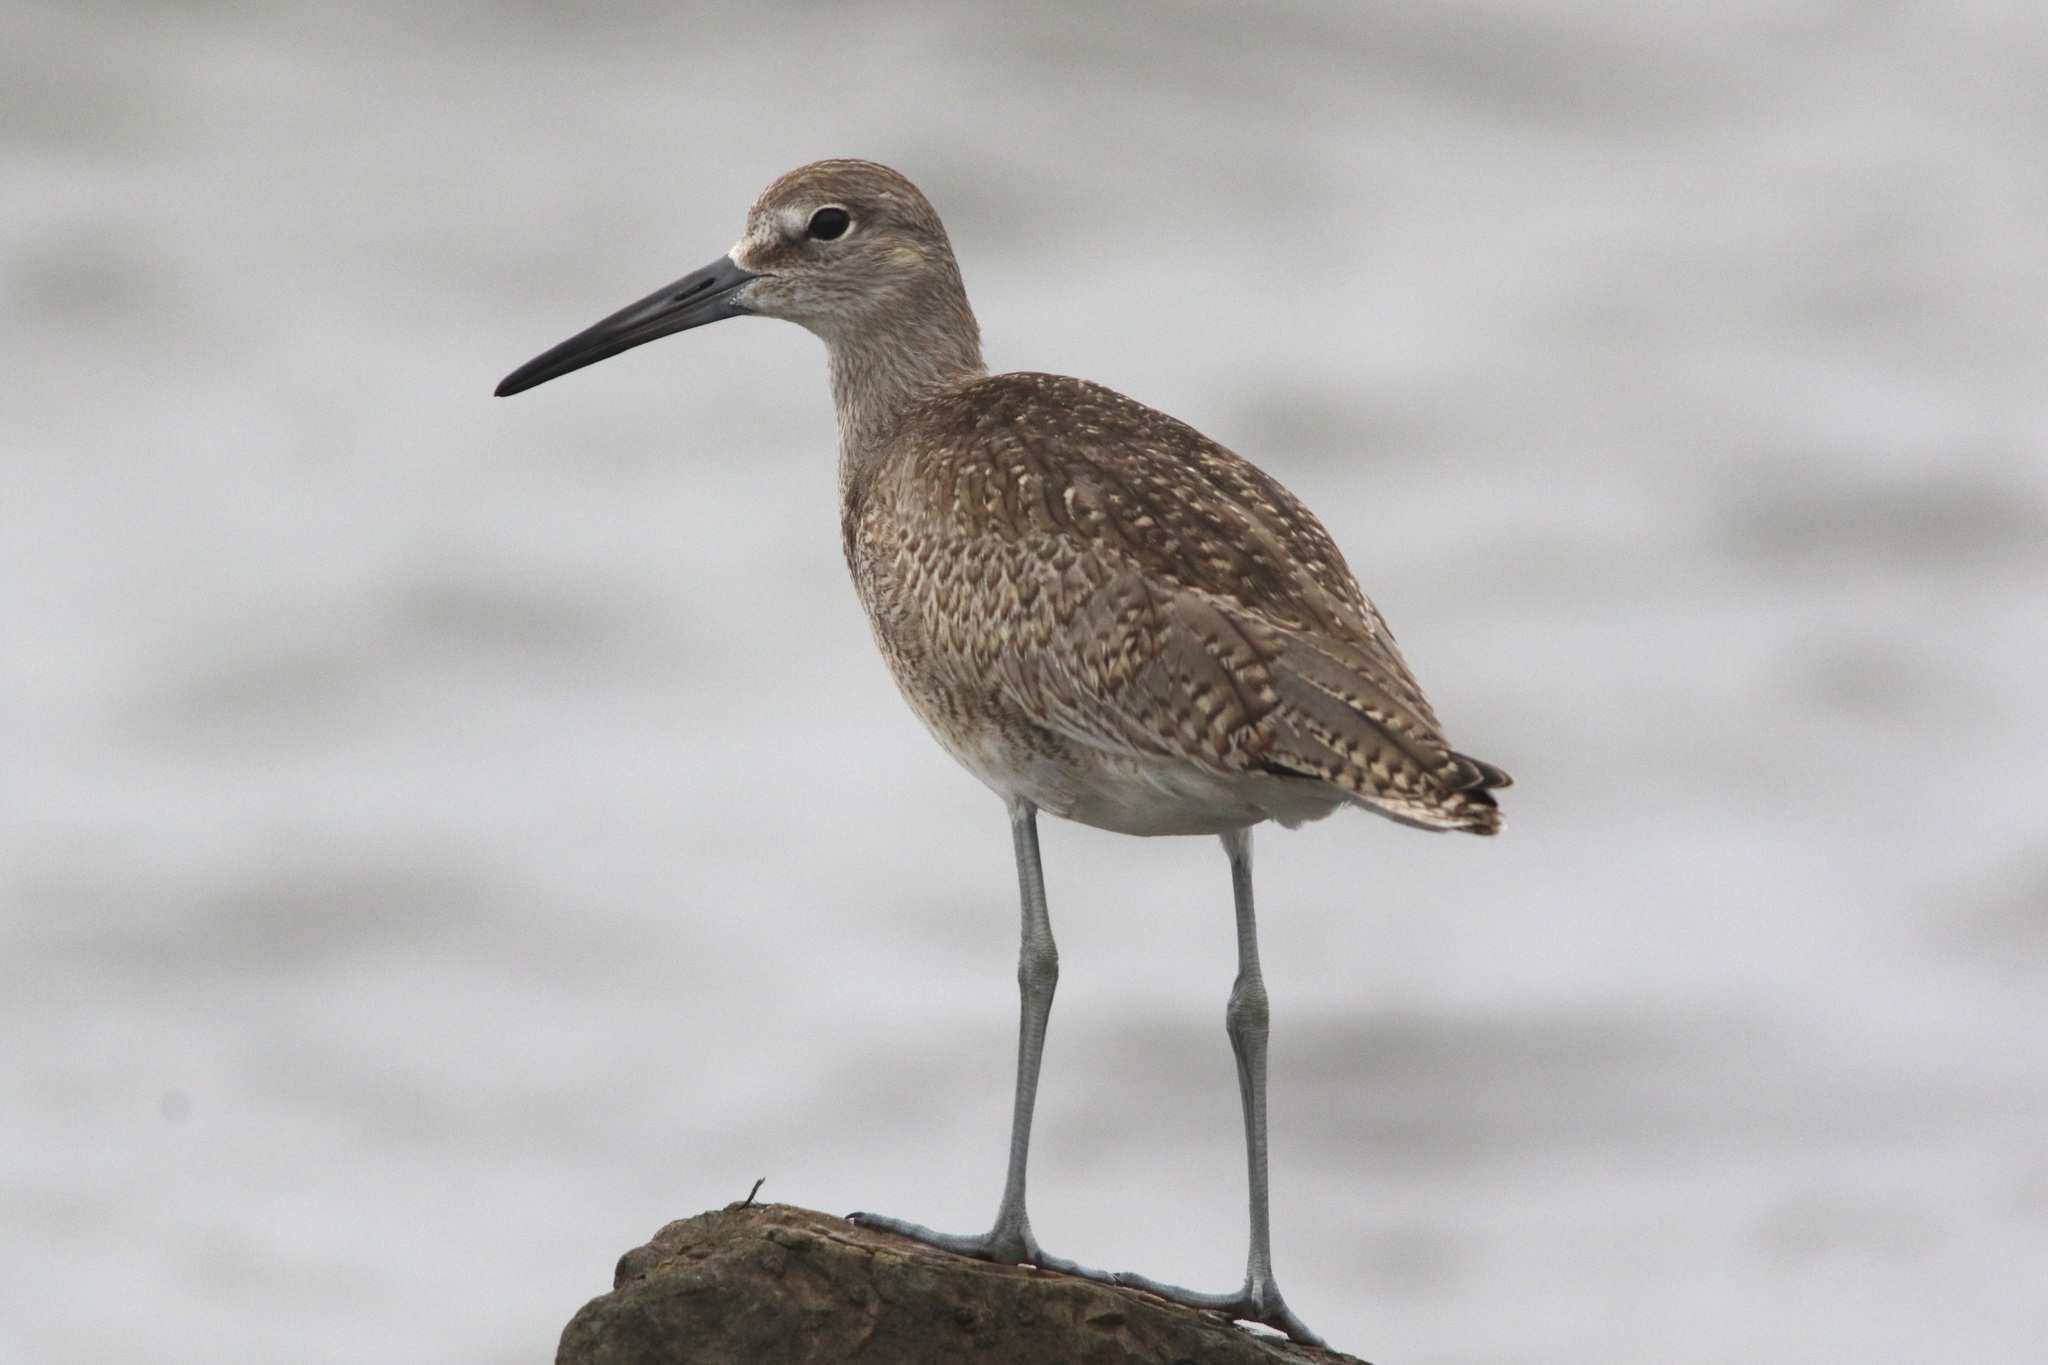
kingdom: Animalia
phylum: Chordata
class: Aves
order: Charadriiformes
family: Scolopacidae
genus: Tringa
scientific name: Tringa semipalmata
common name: Willet
